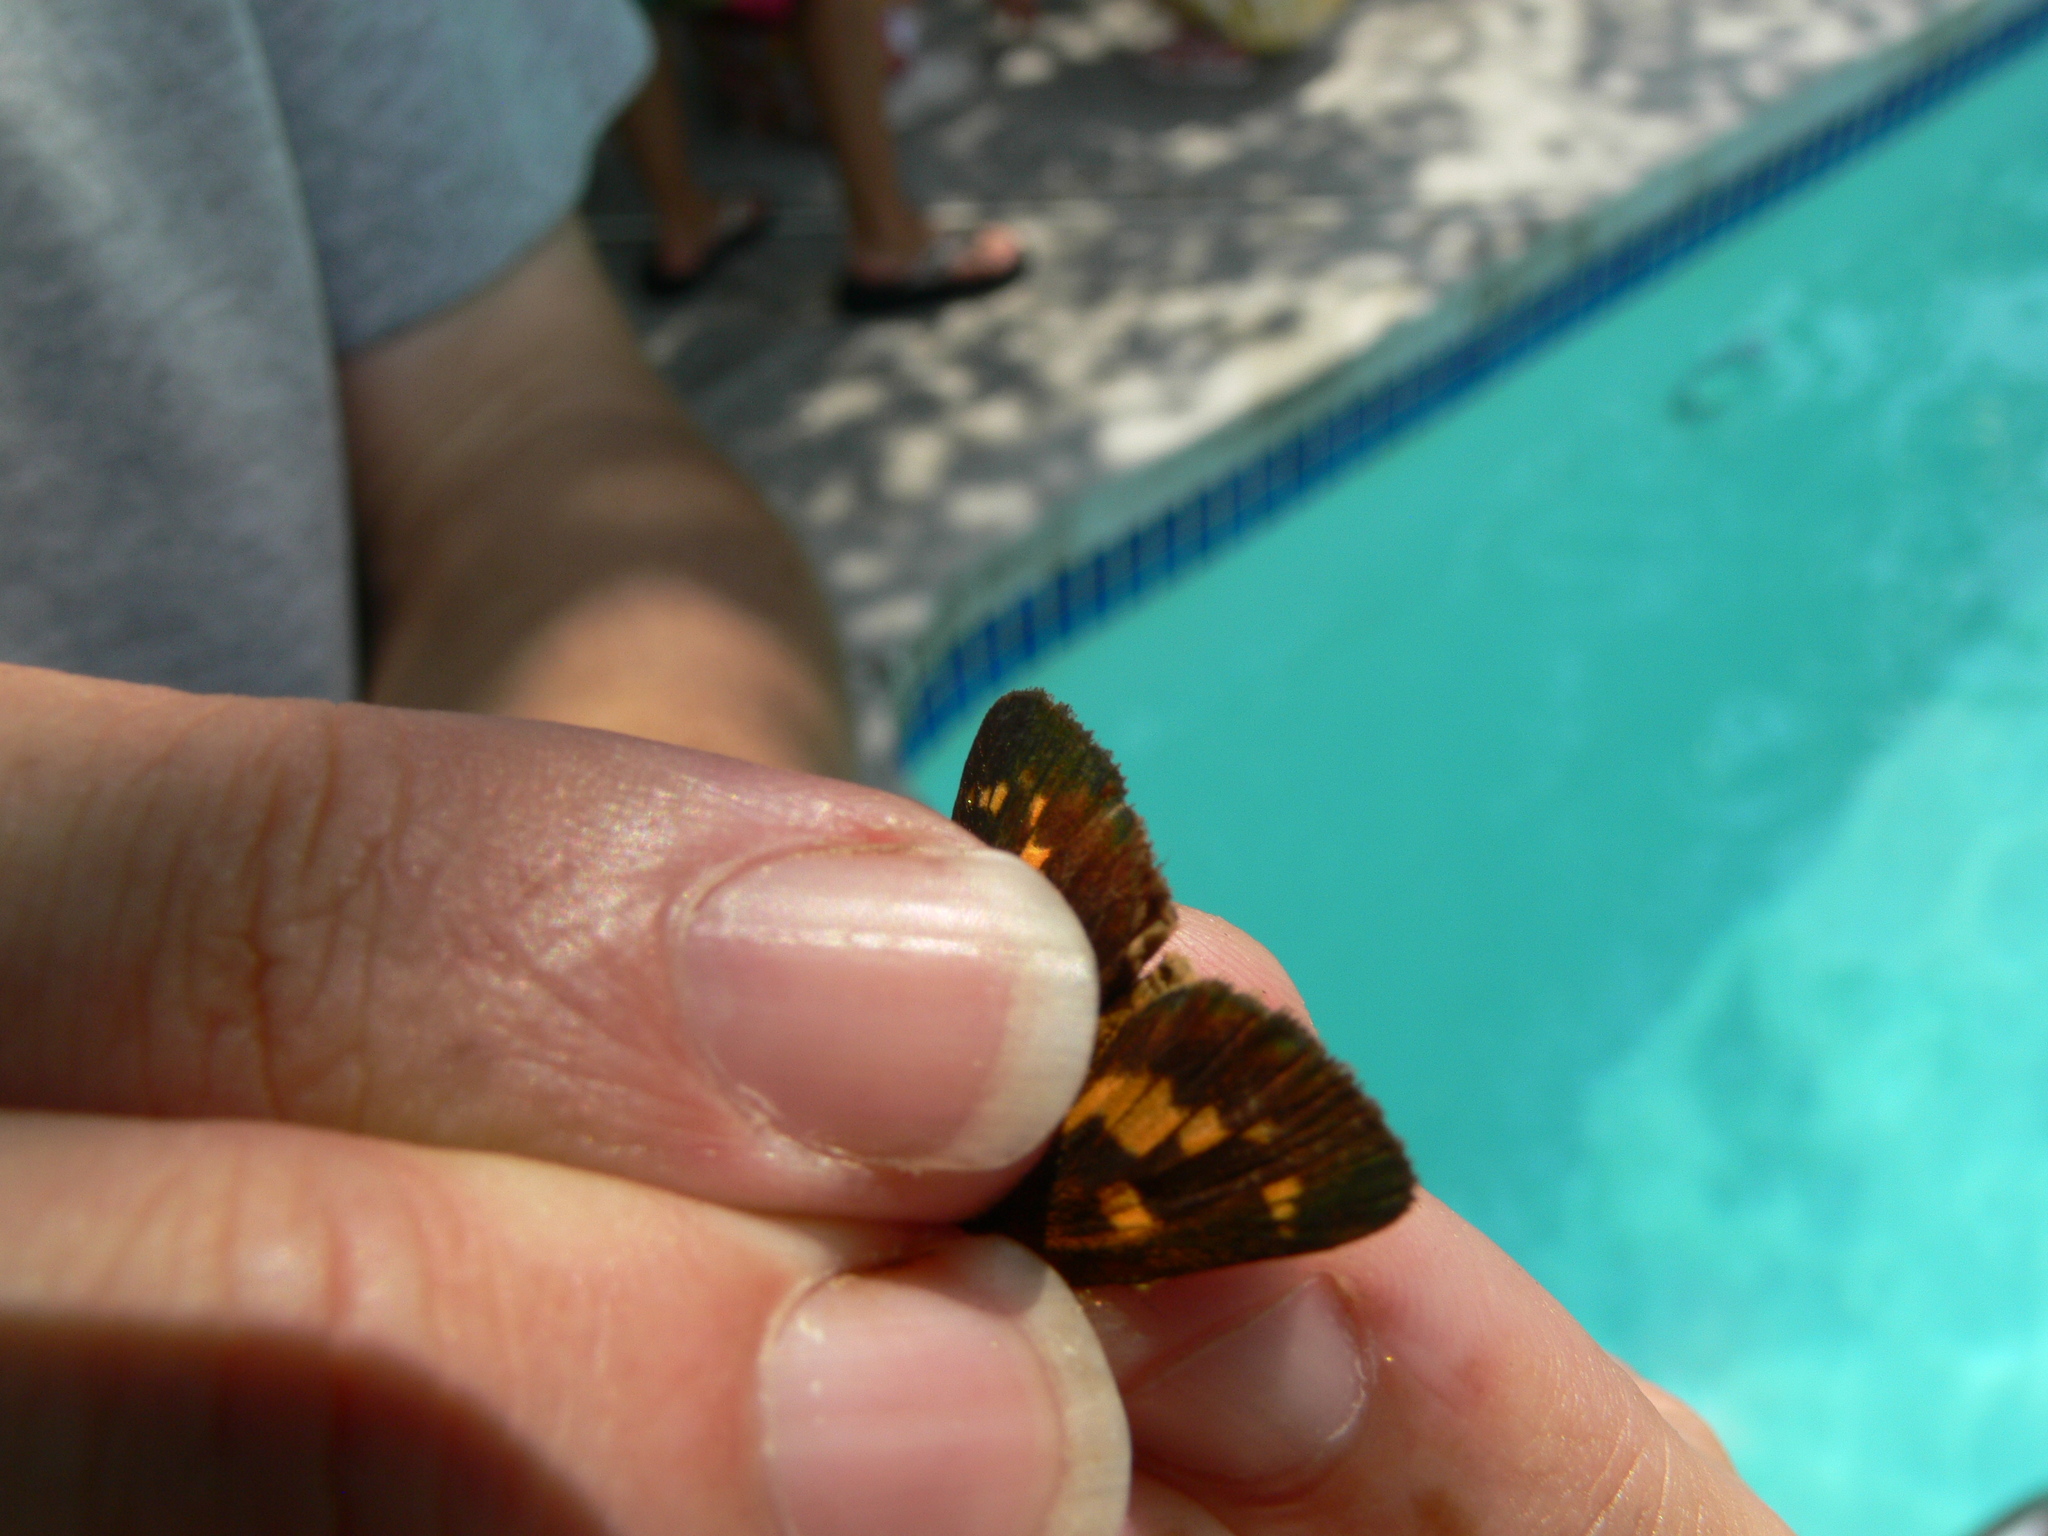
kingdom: Animalia
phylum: Arthropoda
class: Insecta
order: Lepidoptera
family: Hesperiidae
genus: Poanes
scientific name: Poanes viator
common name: Broad-winged skipper
